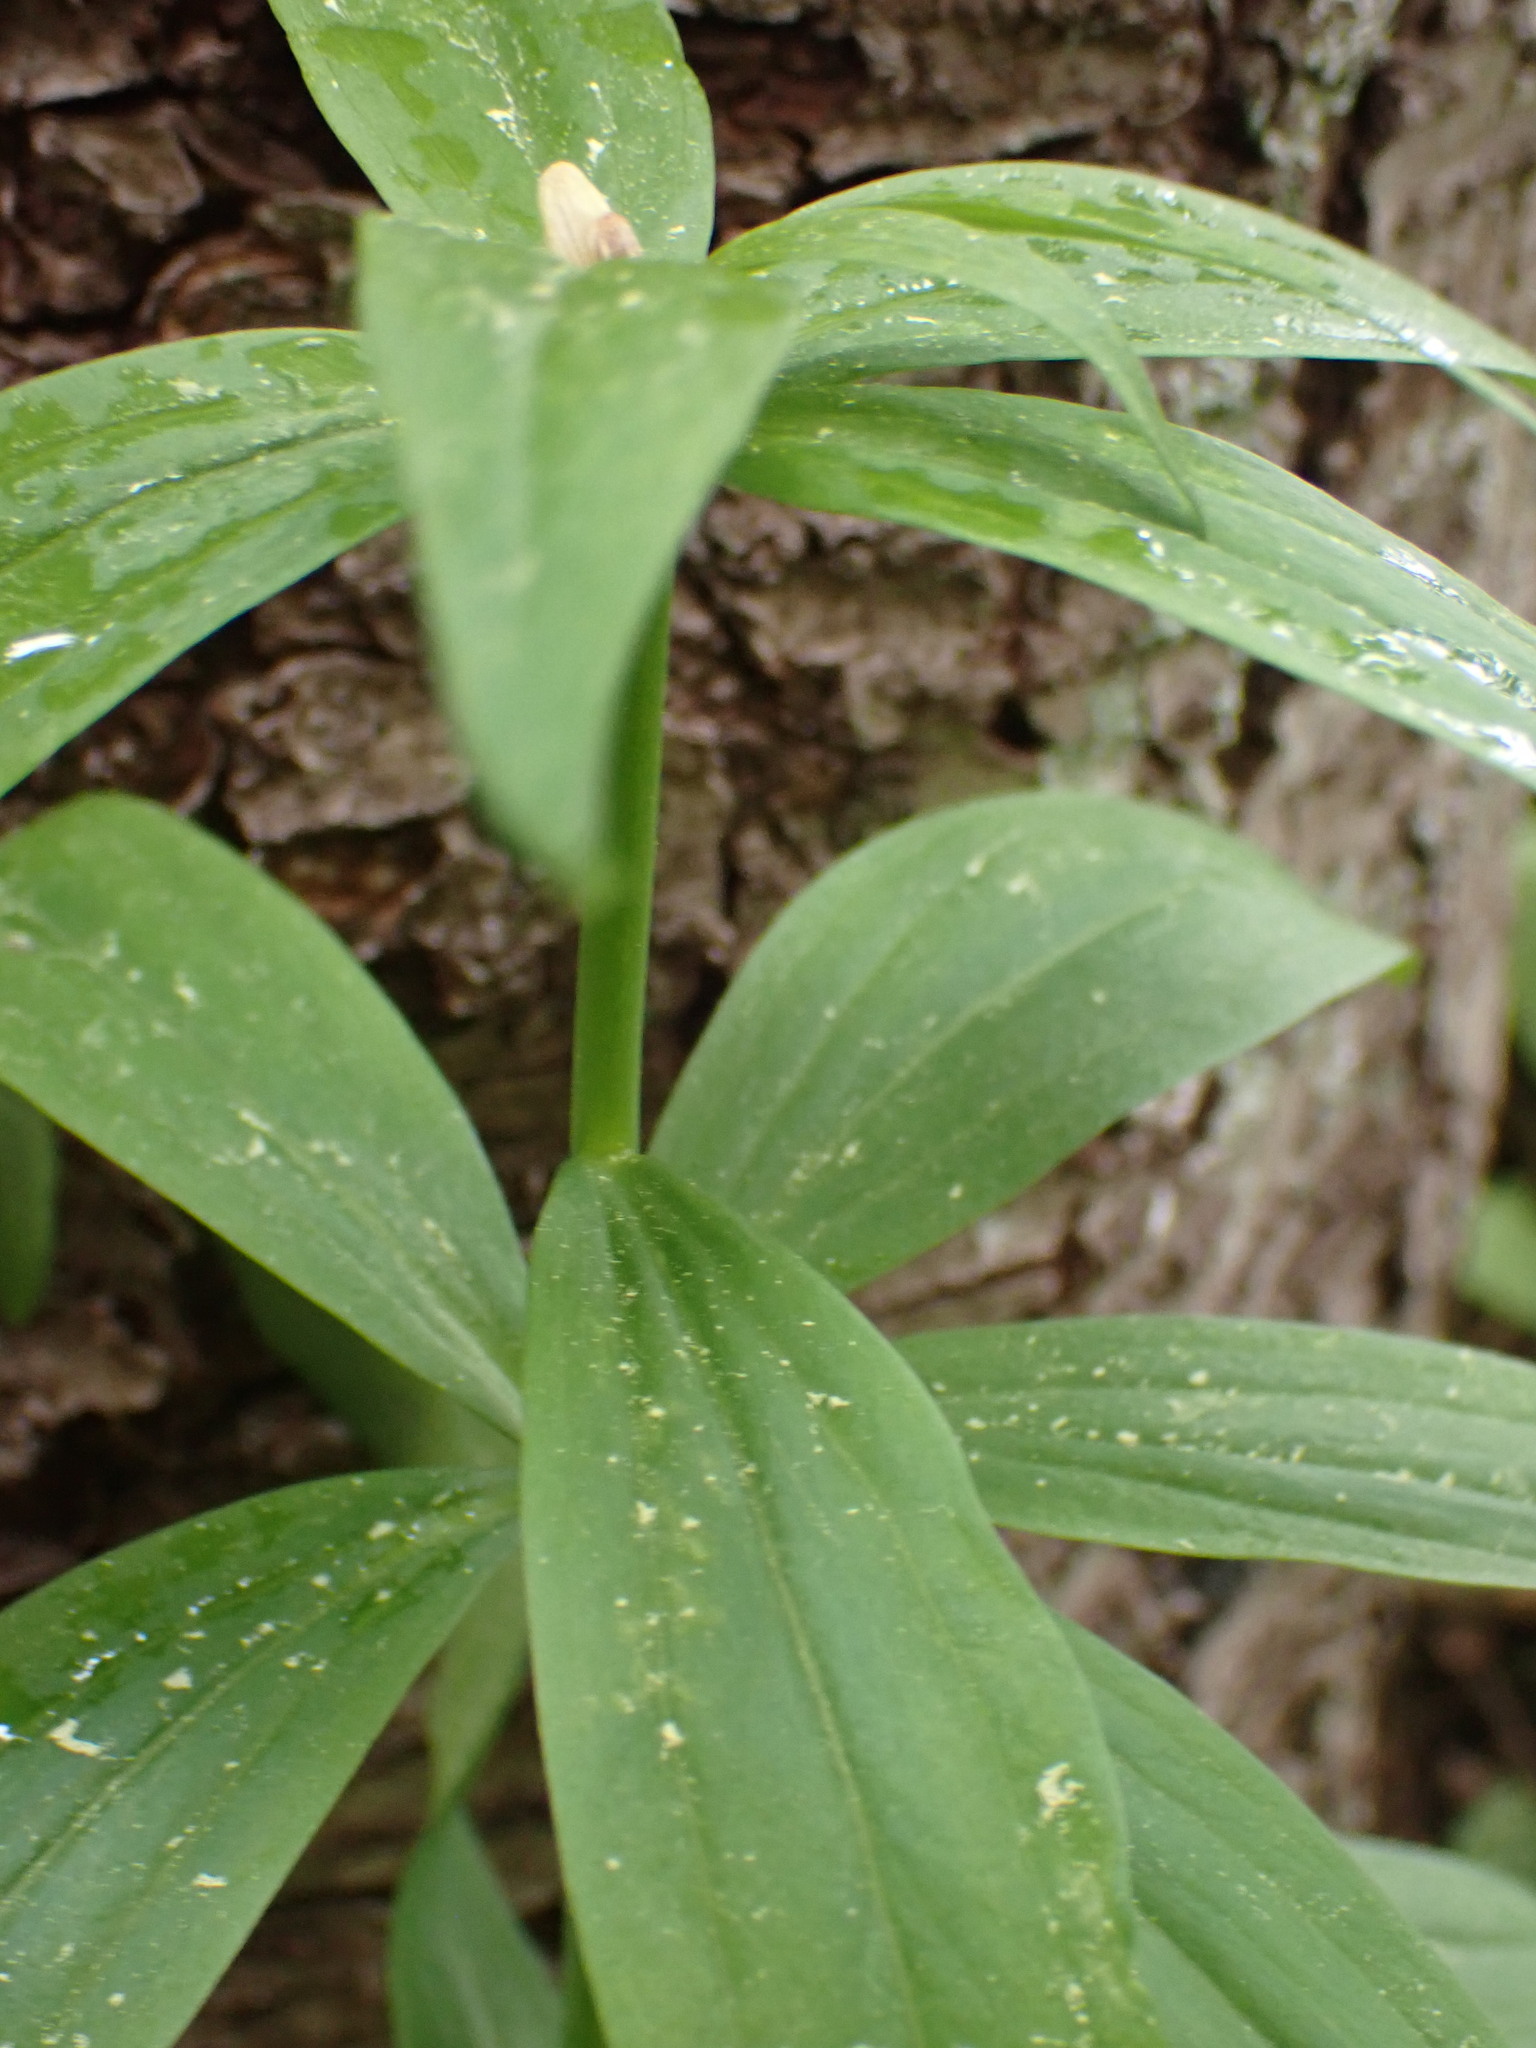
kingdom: Plantae
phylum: Tracheophyta
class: Liliopsida
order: Liliales
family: Liliaceae
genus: Lilium
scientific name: Lilium columbianum
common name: Columbia lily
